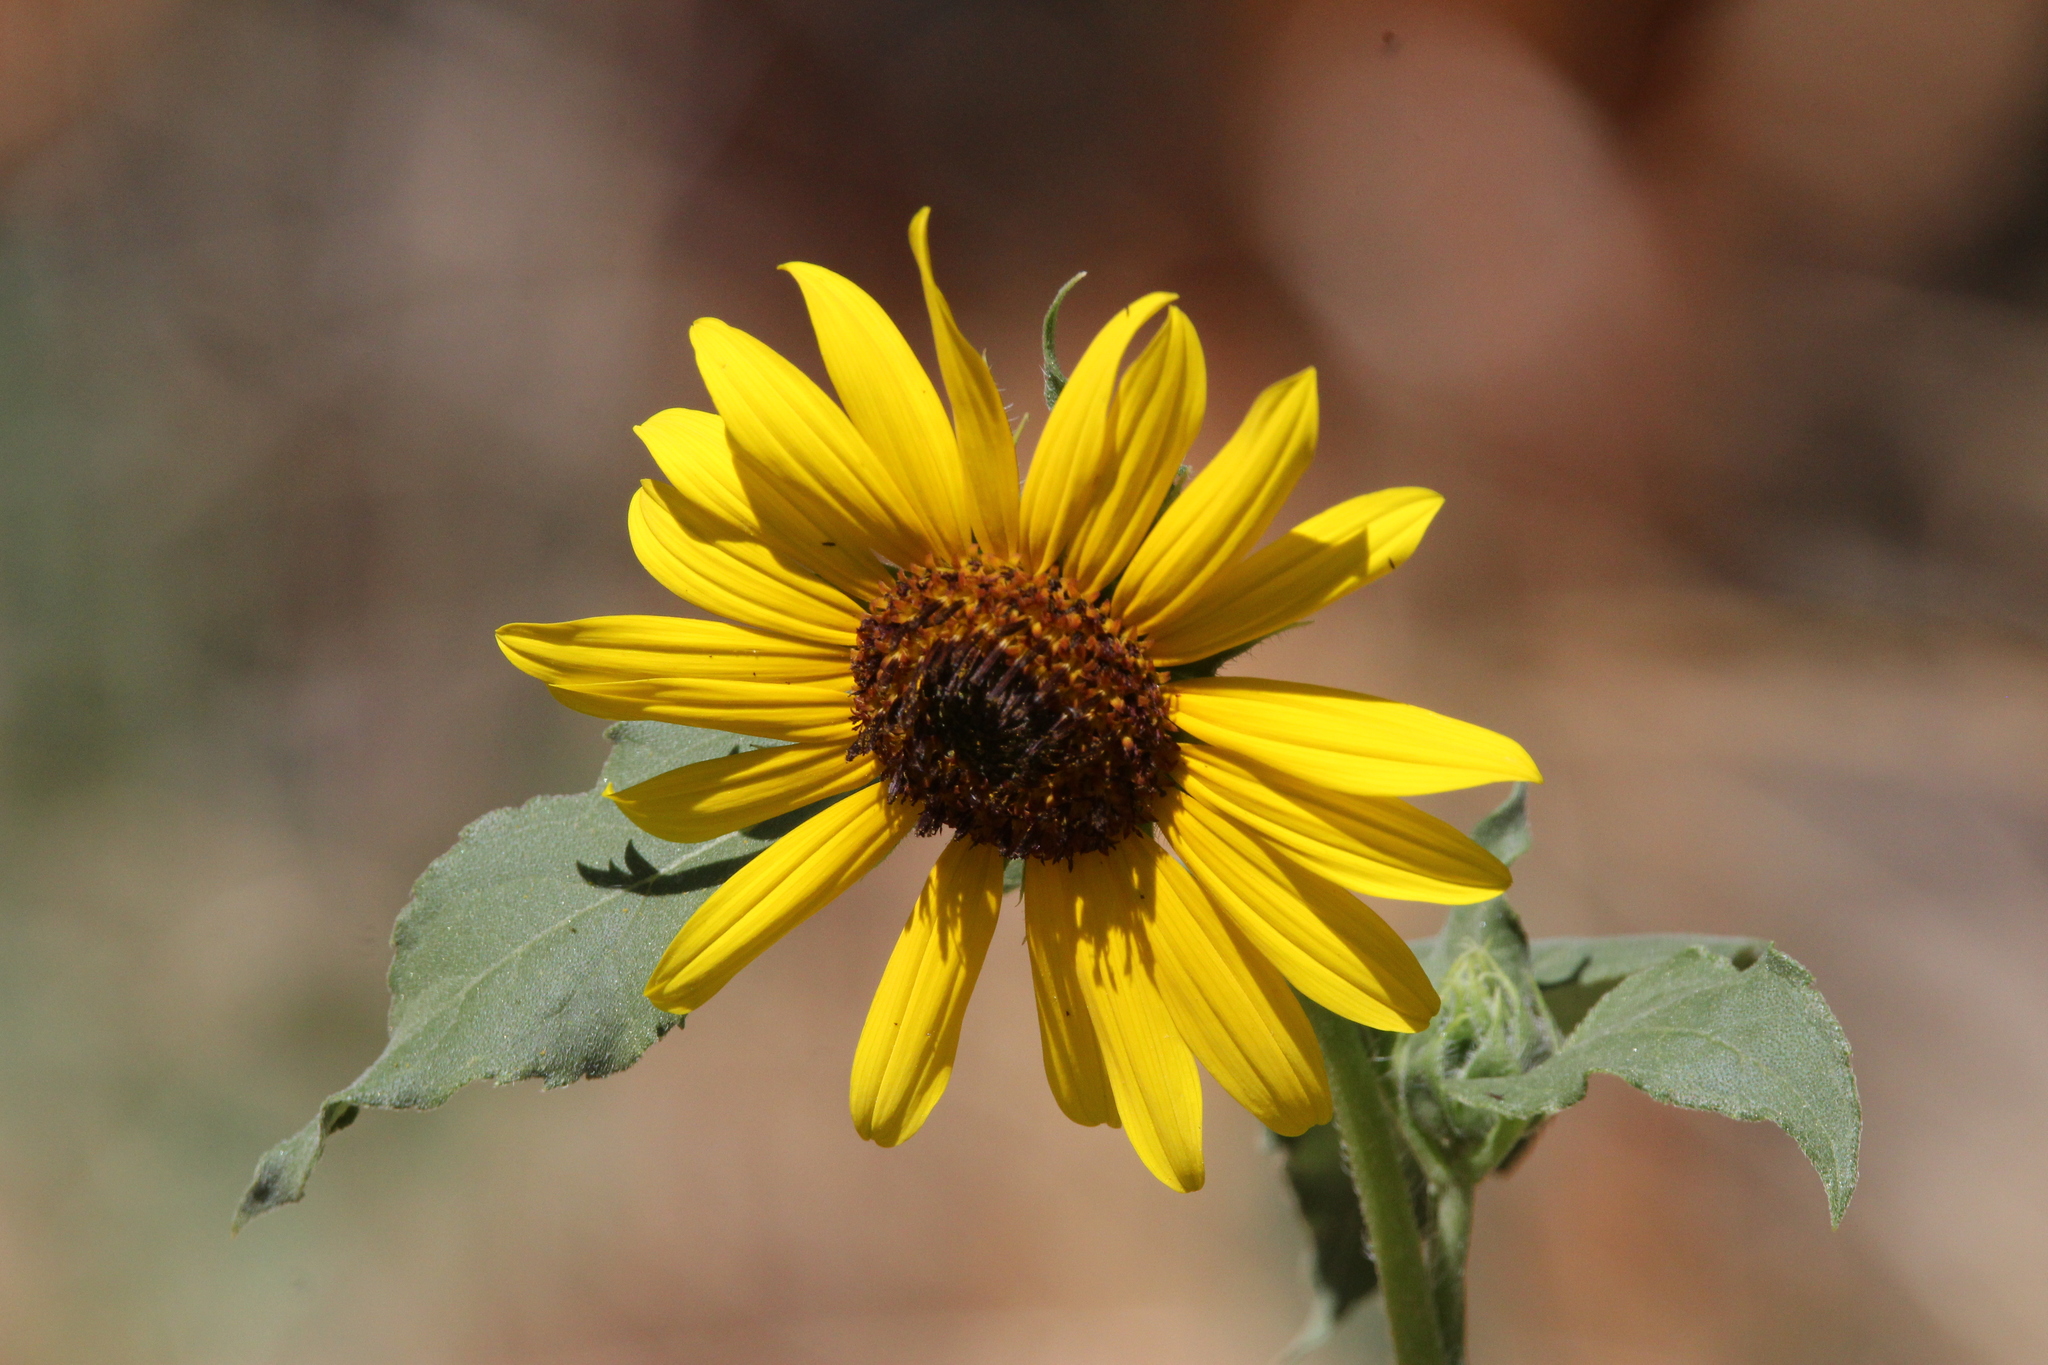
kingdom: Plantae
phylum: Tracheophyta
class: Magnoliopsida
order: Asterales
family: Asteraceae
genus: Helianthus
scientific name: Helianthus annuus
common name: Sunflower
